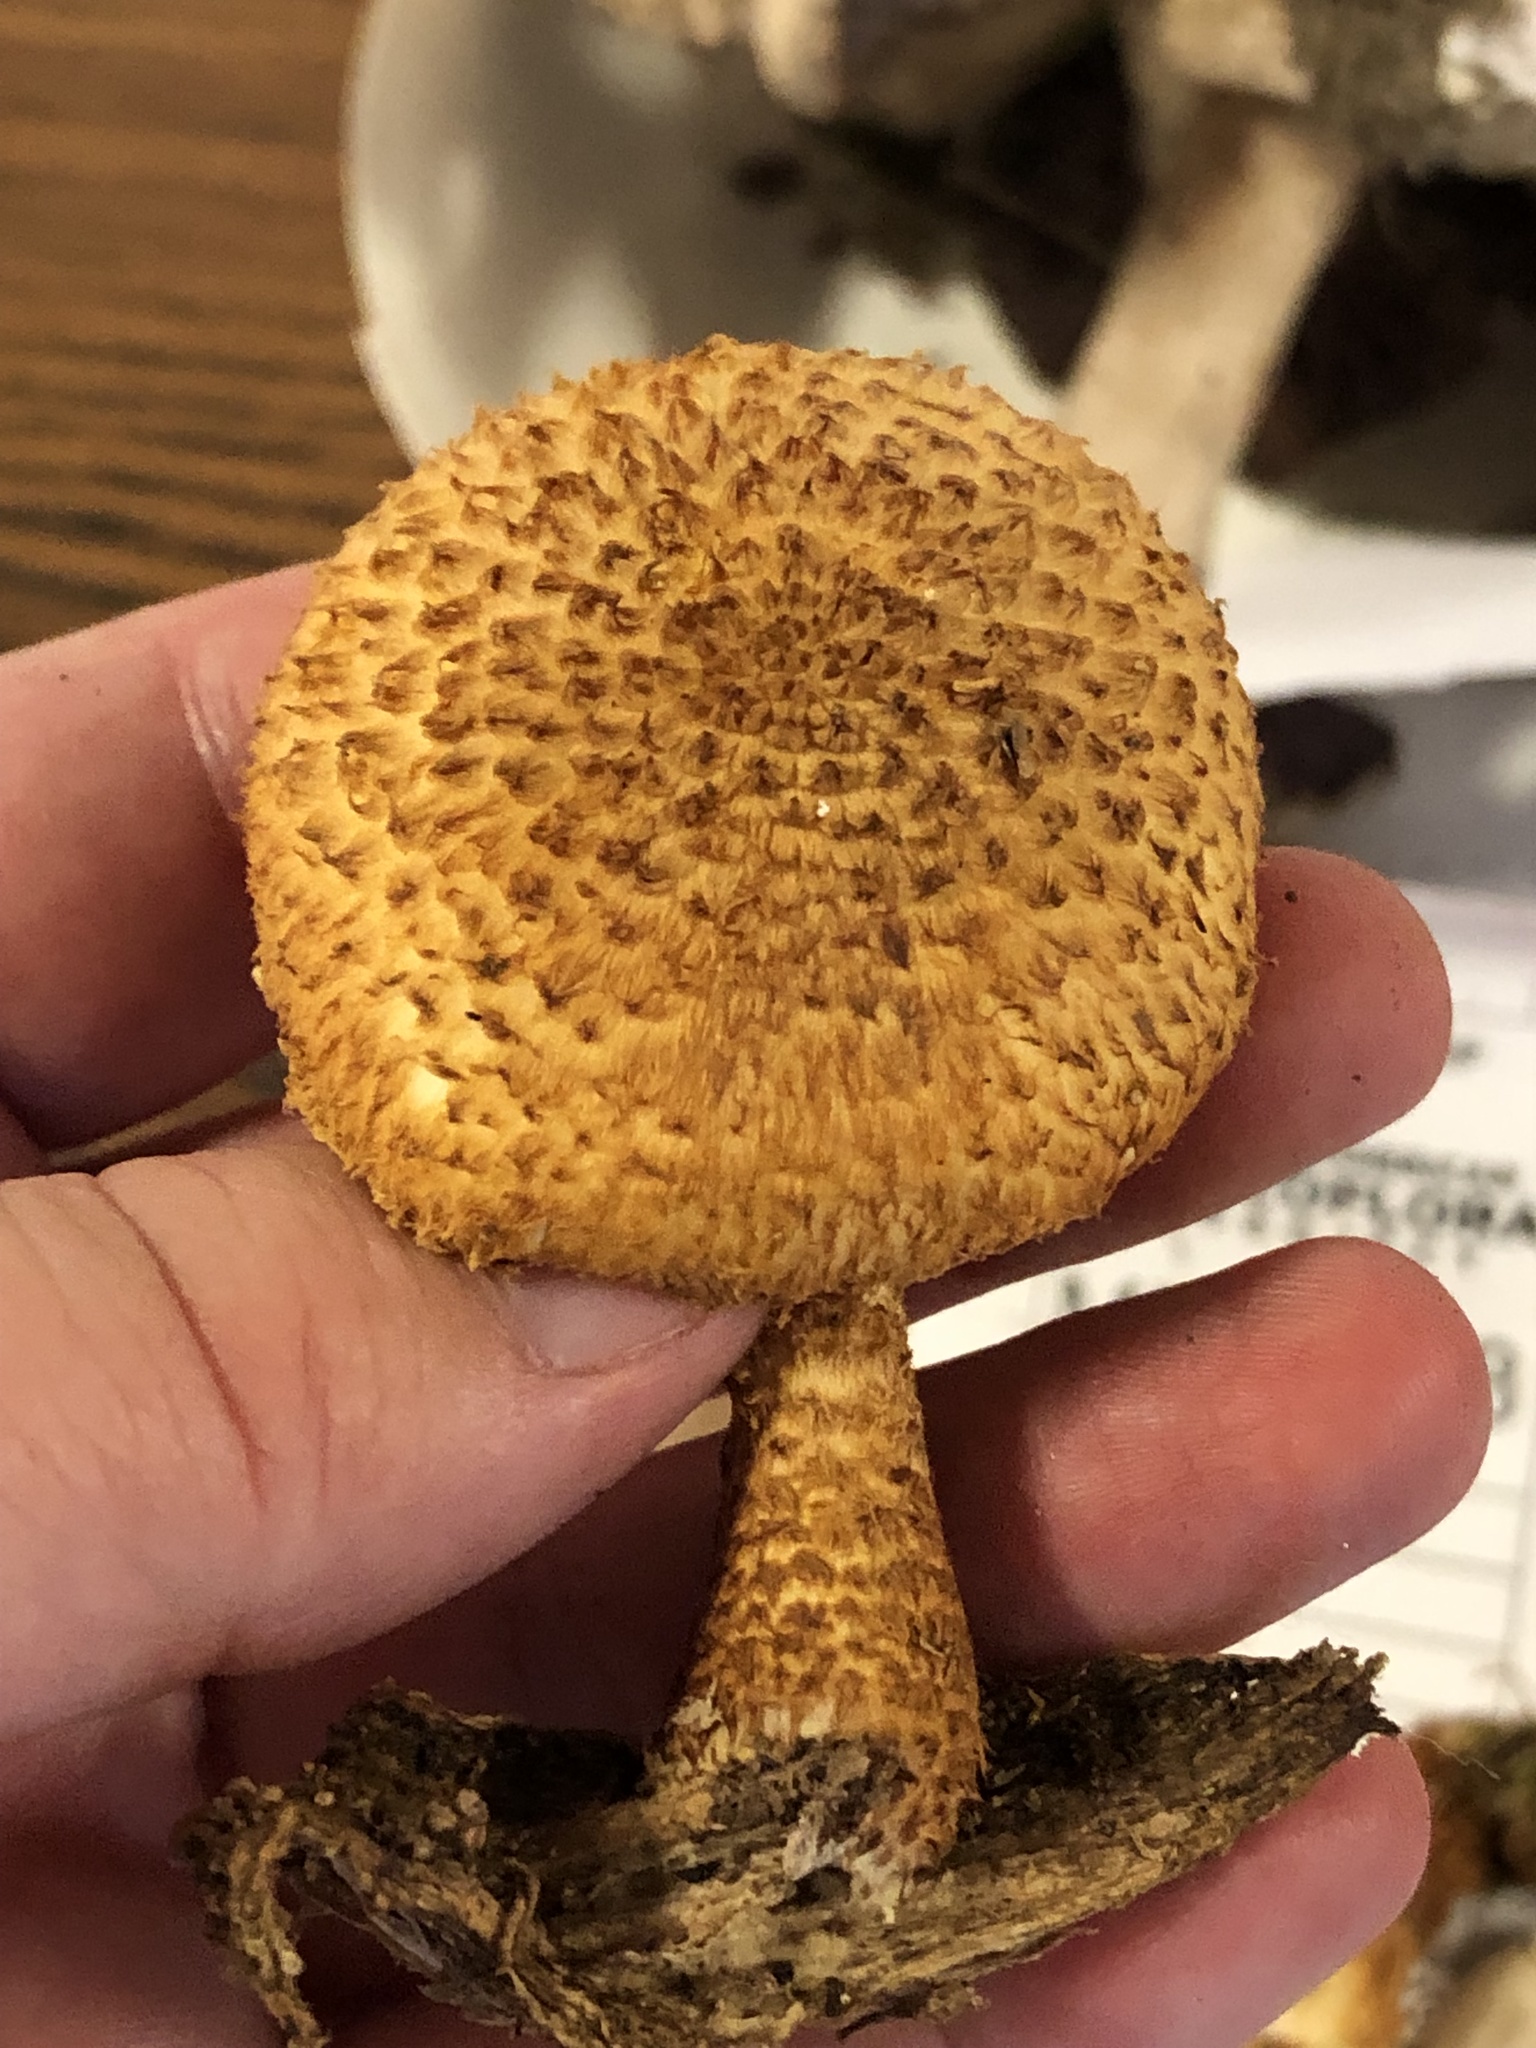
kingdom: Fungi
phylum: Basidiomycota
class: Agaricomycetes
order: Agaricales
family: Agaricaceae
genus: Leucopholiota
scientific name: Leucopholiota decorosa
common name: Decorated pholiota
